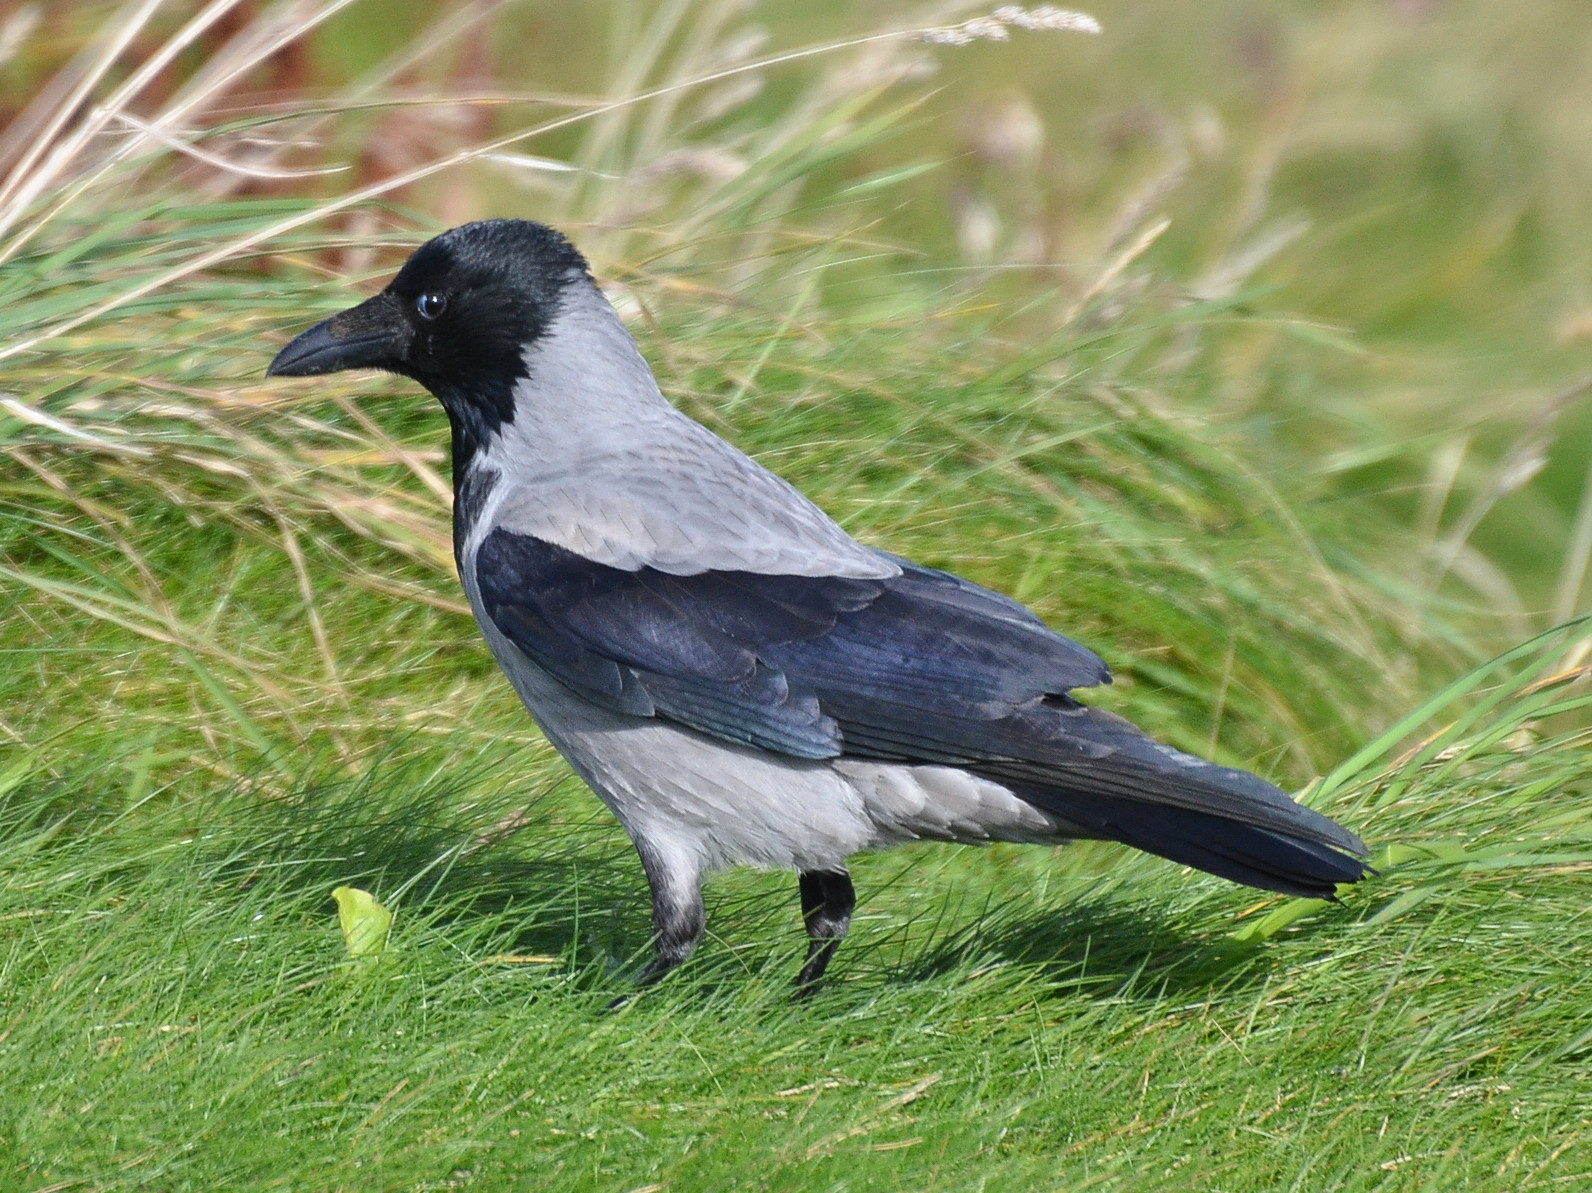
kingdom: Animalia
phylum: Chordata
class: Aves
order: Passeriformes
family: Corvidae
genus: Corvus
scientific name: Corvus cornix
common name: Hooded crow
